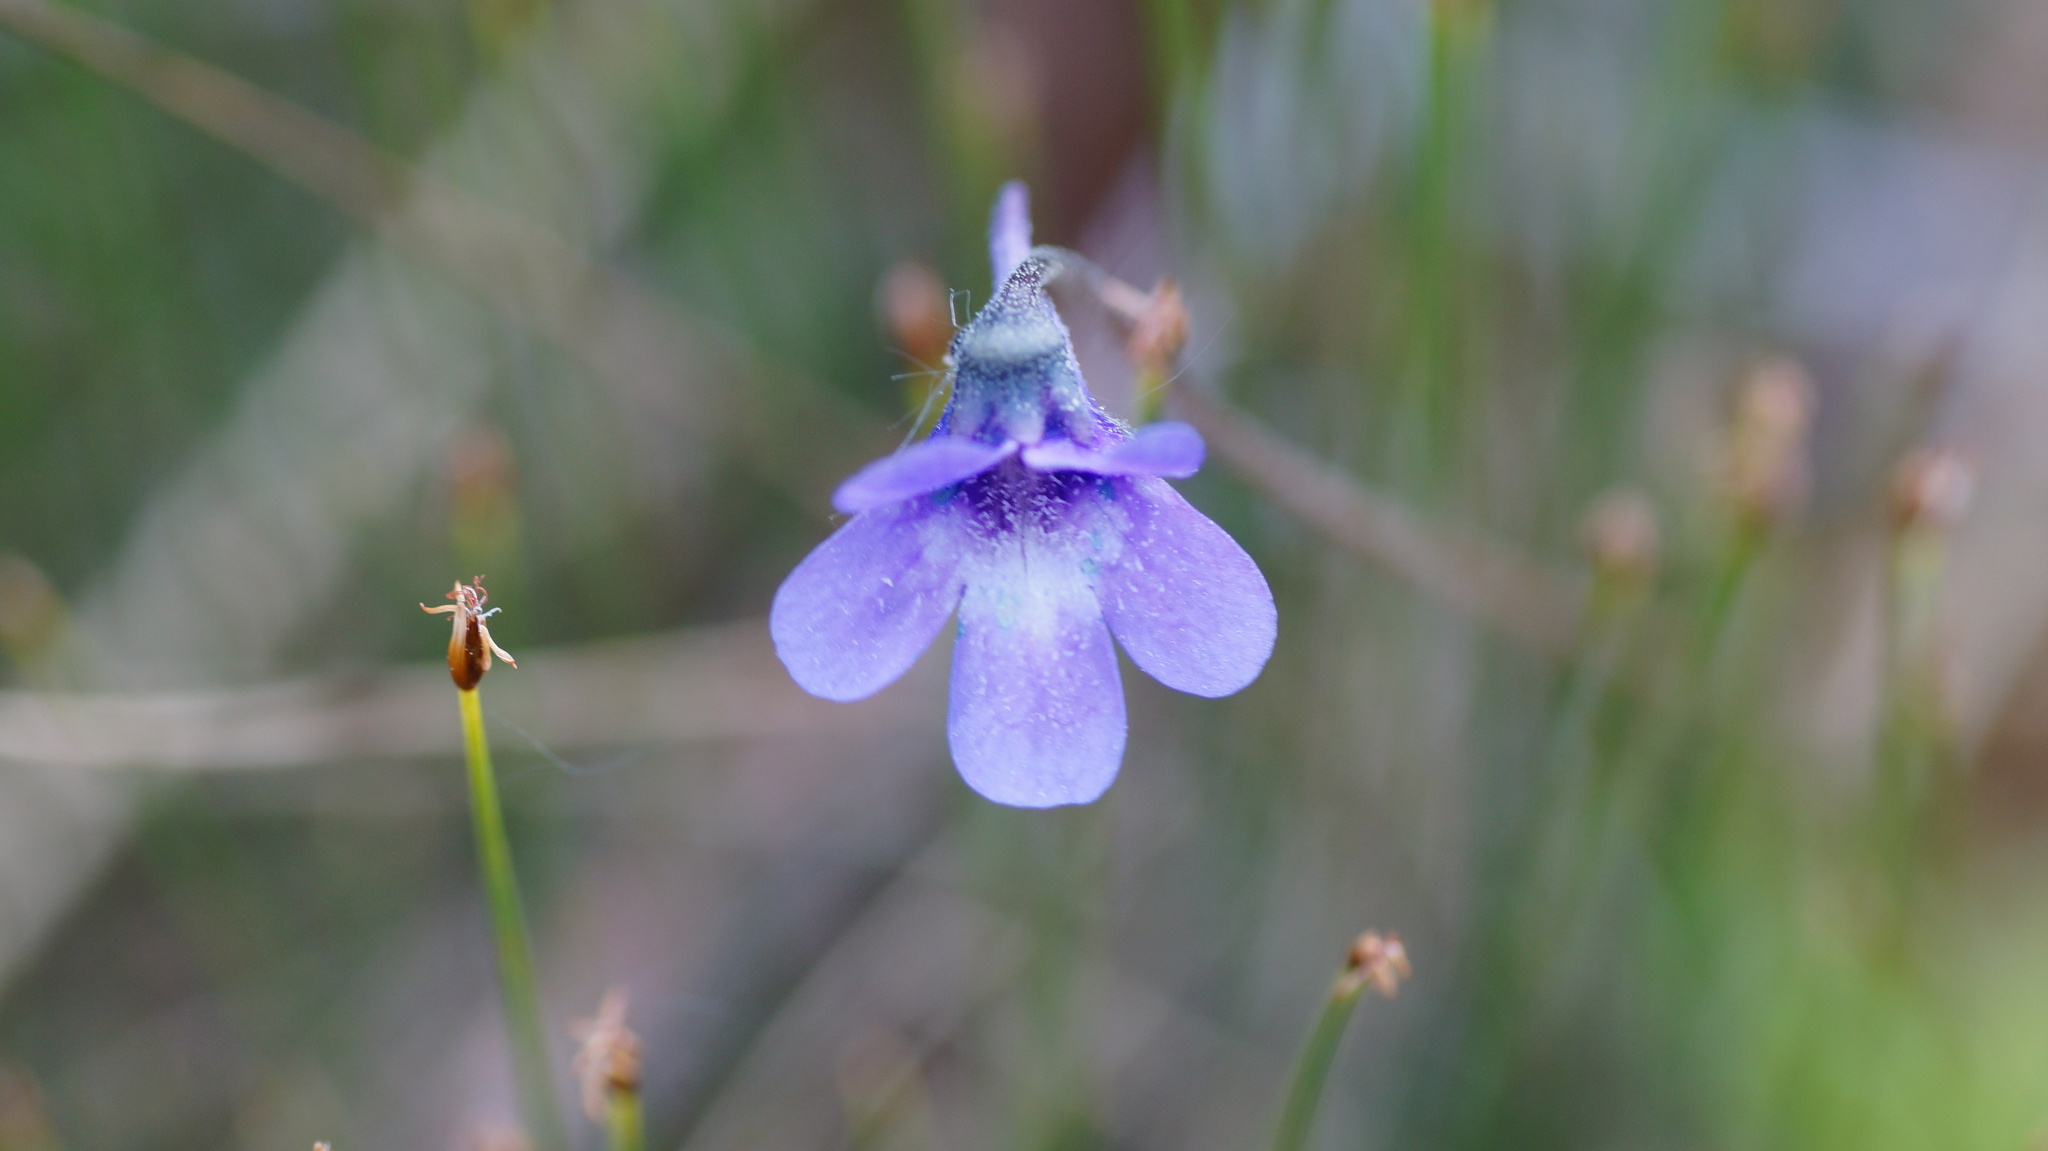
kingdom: Plantae
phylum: Tracheophyta
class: Magnoliopsida
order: Lamiales
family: Lentibulariaceae
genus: Pinguicula
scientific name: Pinguicula vulgaris
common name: Common butterwort
